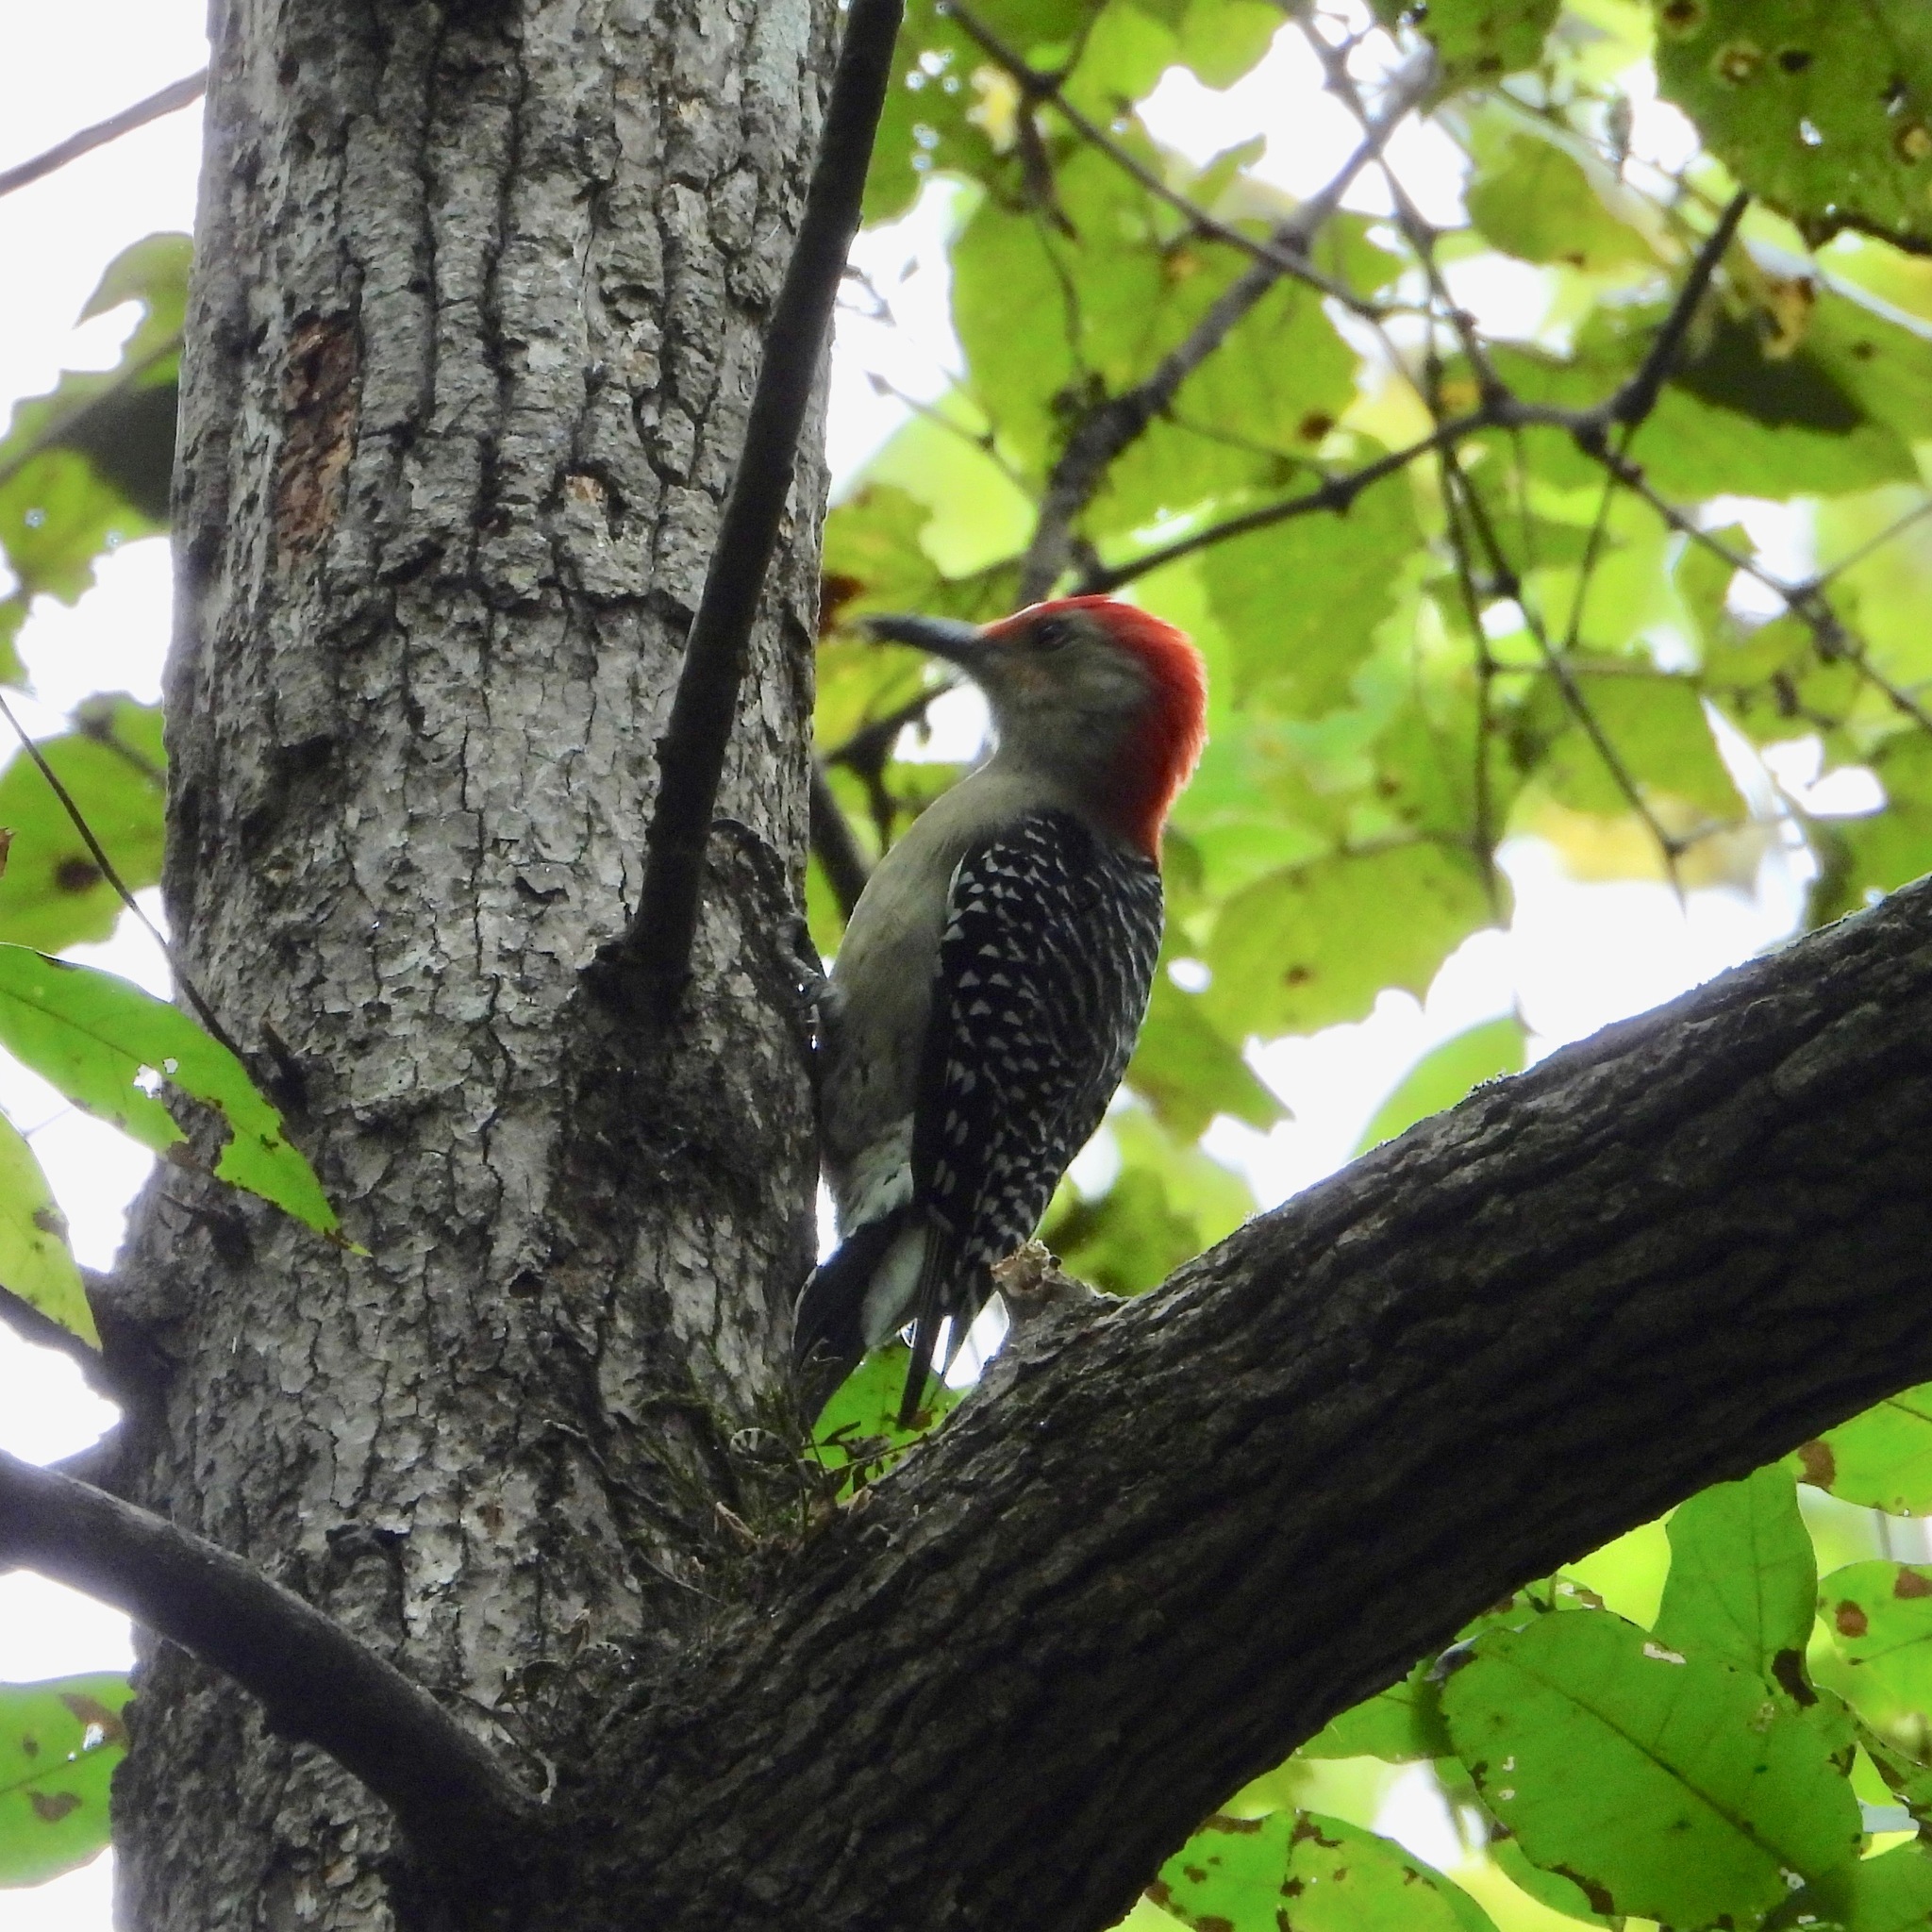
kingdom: Animalia
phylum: Chordata
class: Aves
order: Piciformes
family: Picidae
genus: Melanerpes
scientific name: Melanerpes carolinus
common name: Red-bellied woodpecker
